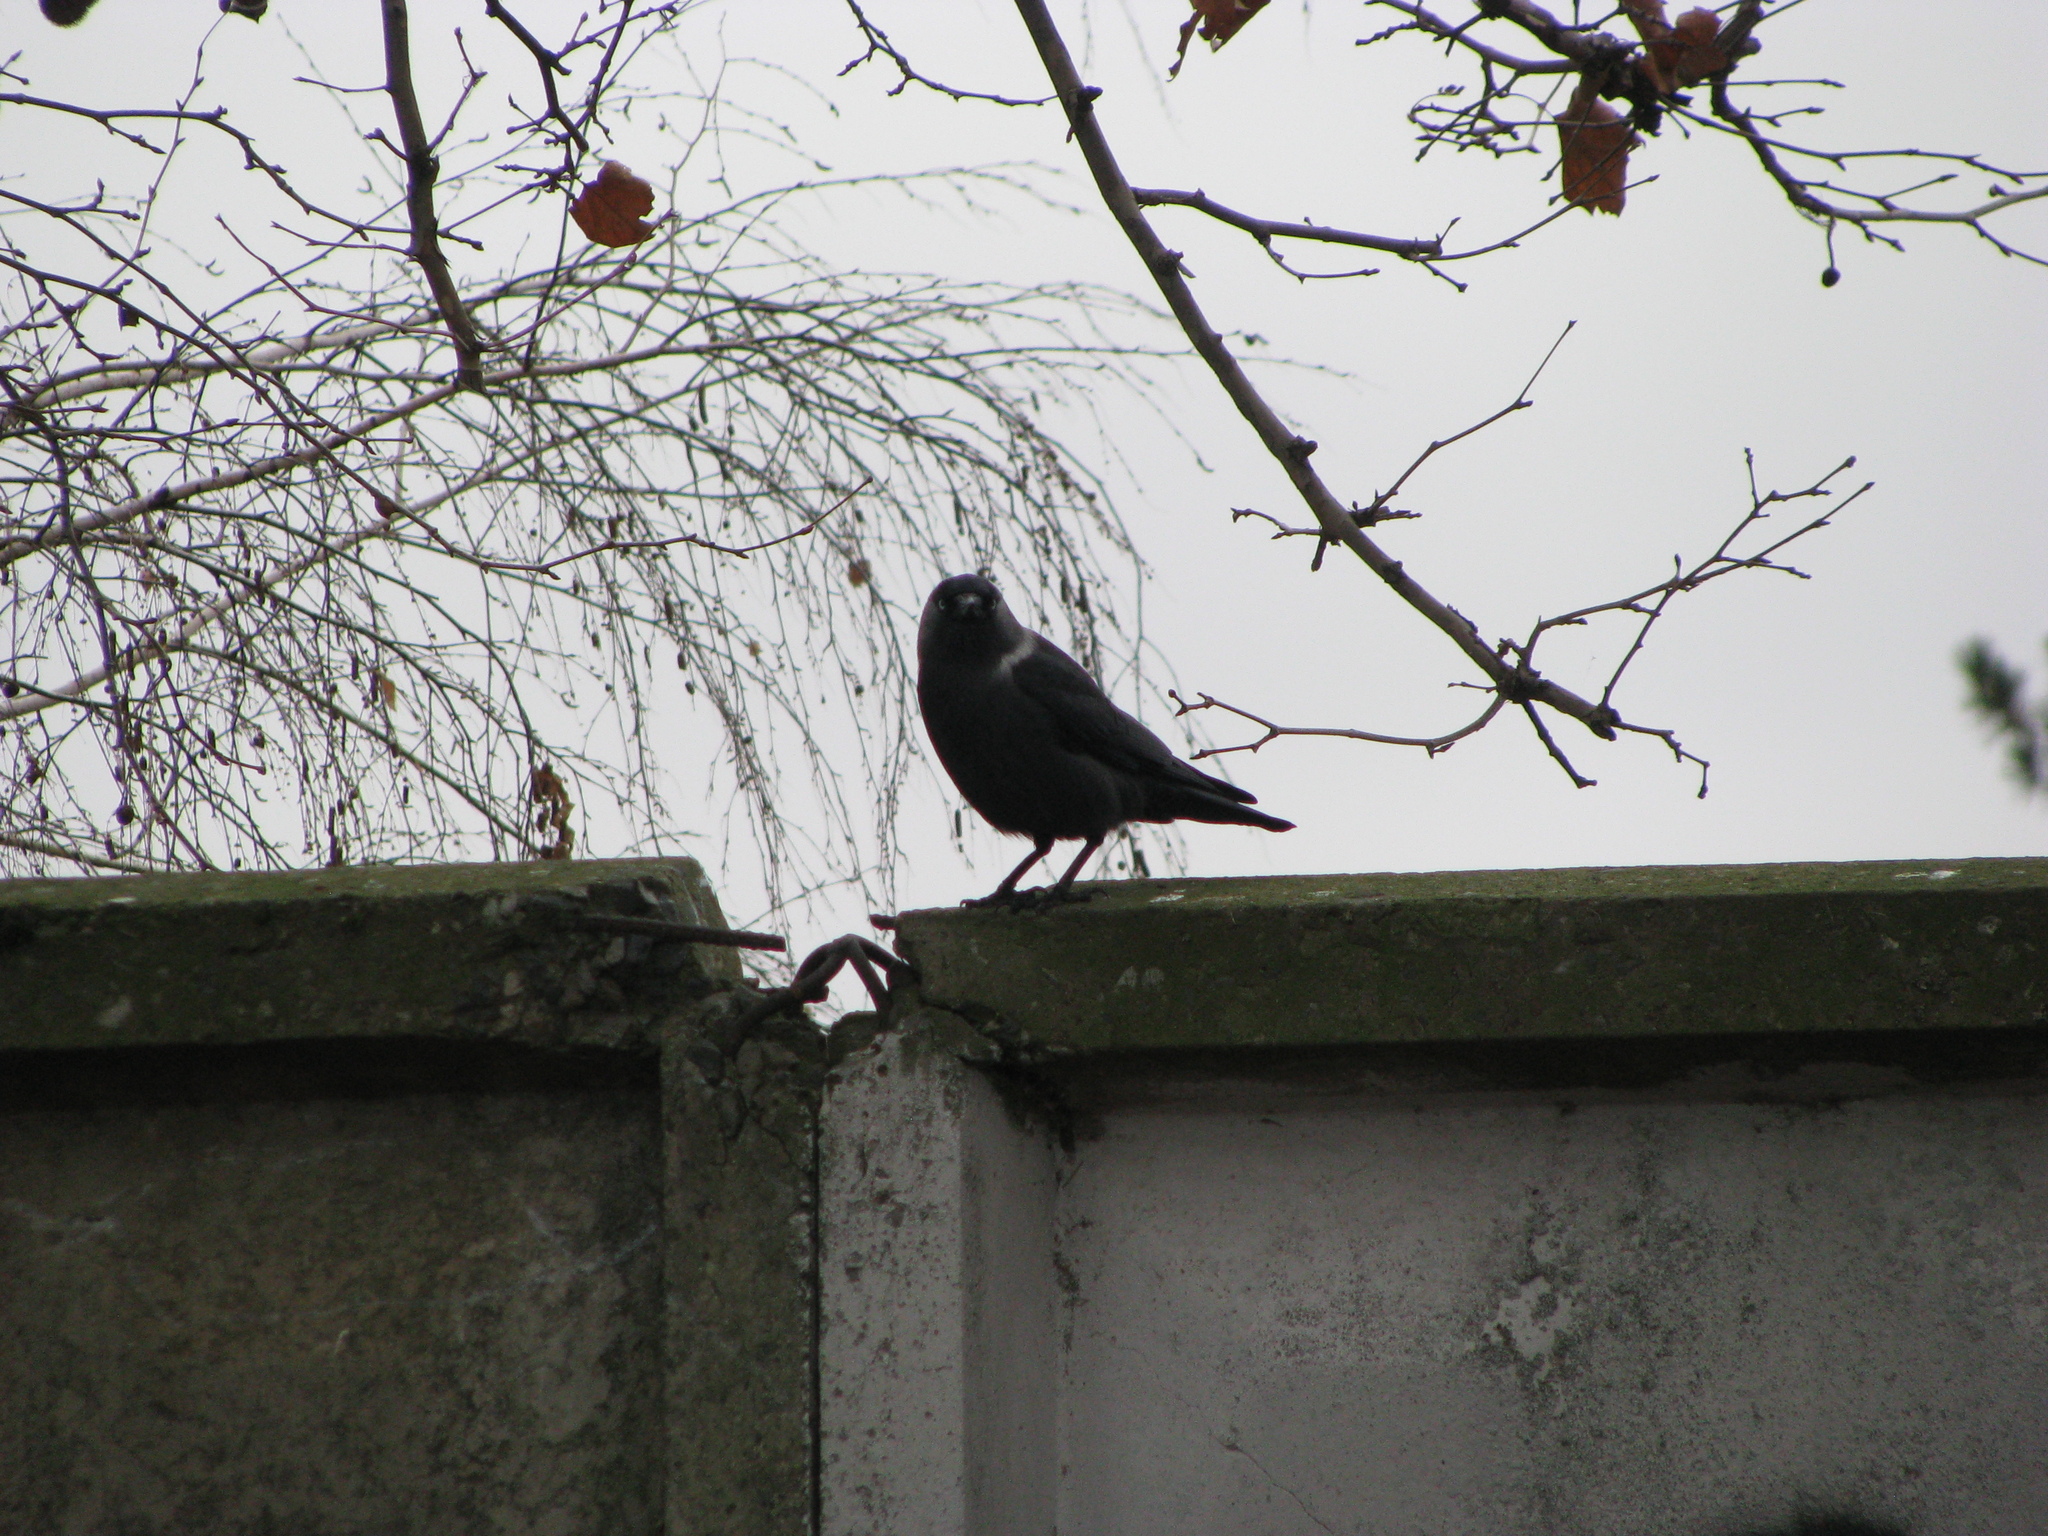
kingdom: Animalia
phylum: Chordata
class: Aves
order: Passeriformes
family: Corvidae
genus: Coloeus
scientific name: Coloeus monedula
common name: Western jackdaw
